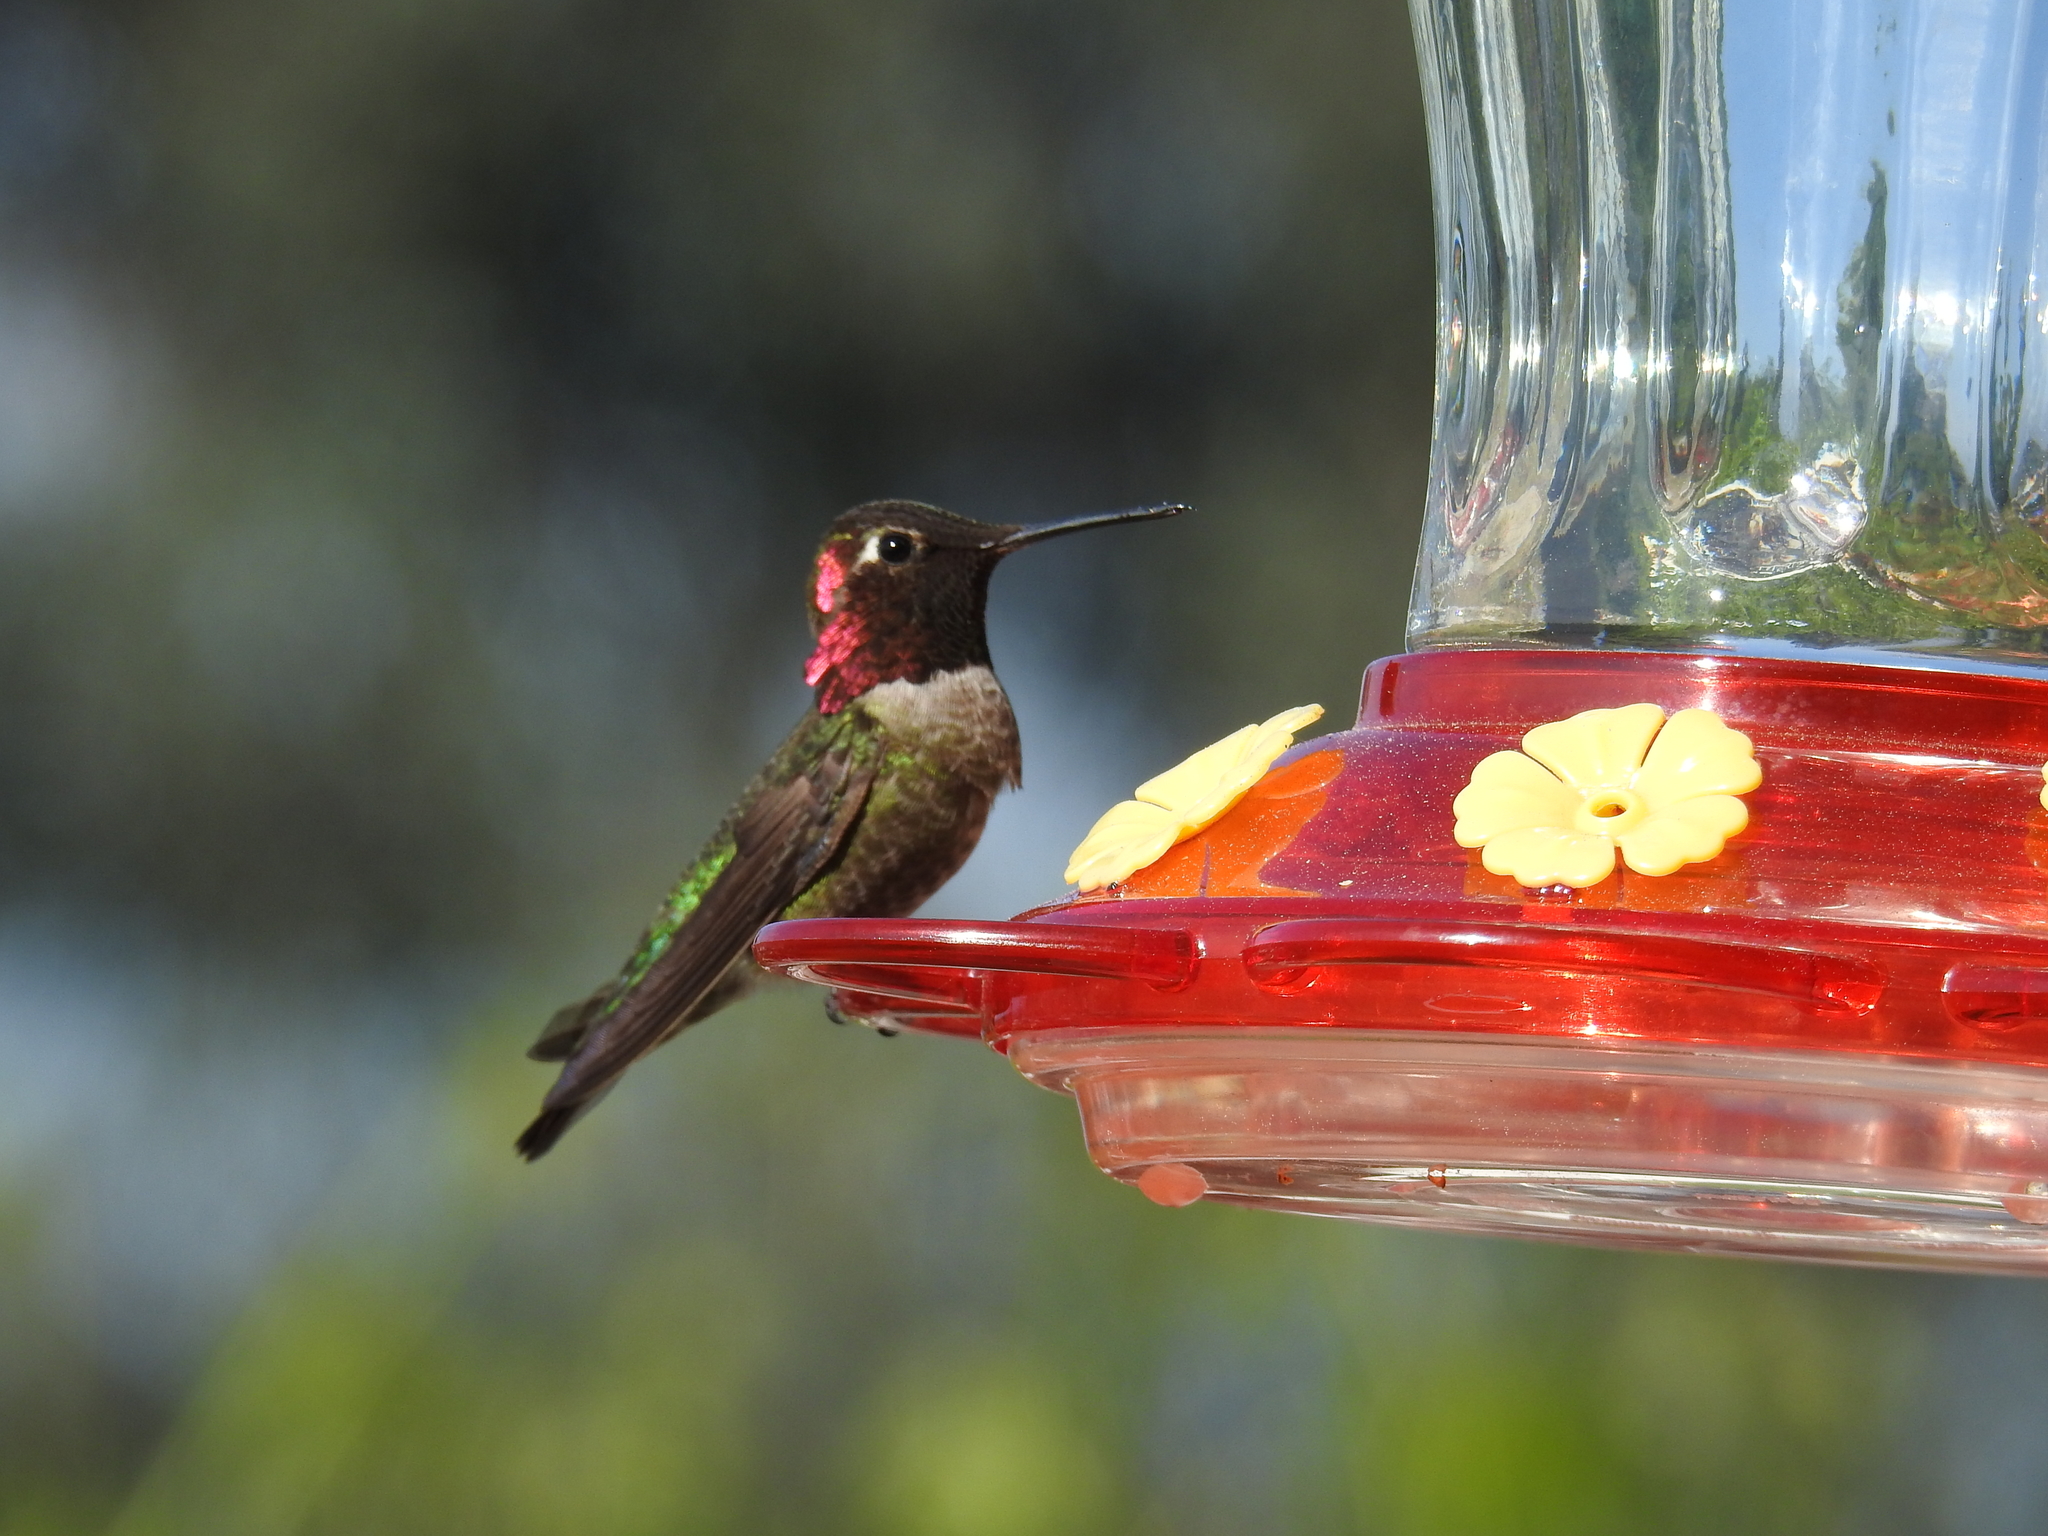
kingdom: Animalia
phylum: Chordata
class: Aves
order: Apodiformes
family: Trochilidae
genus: Calypte
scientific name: Calypte anna
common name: Anna's hummingbird
